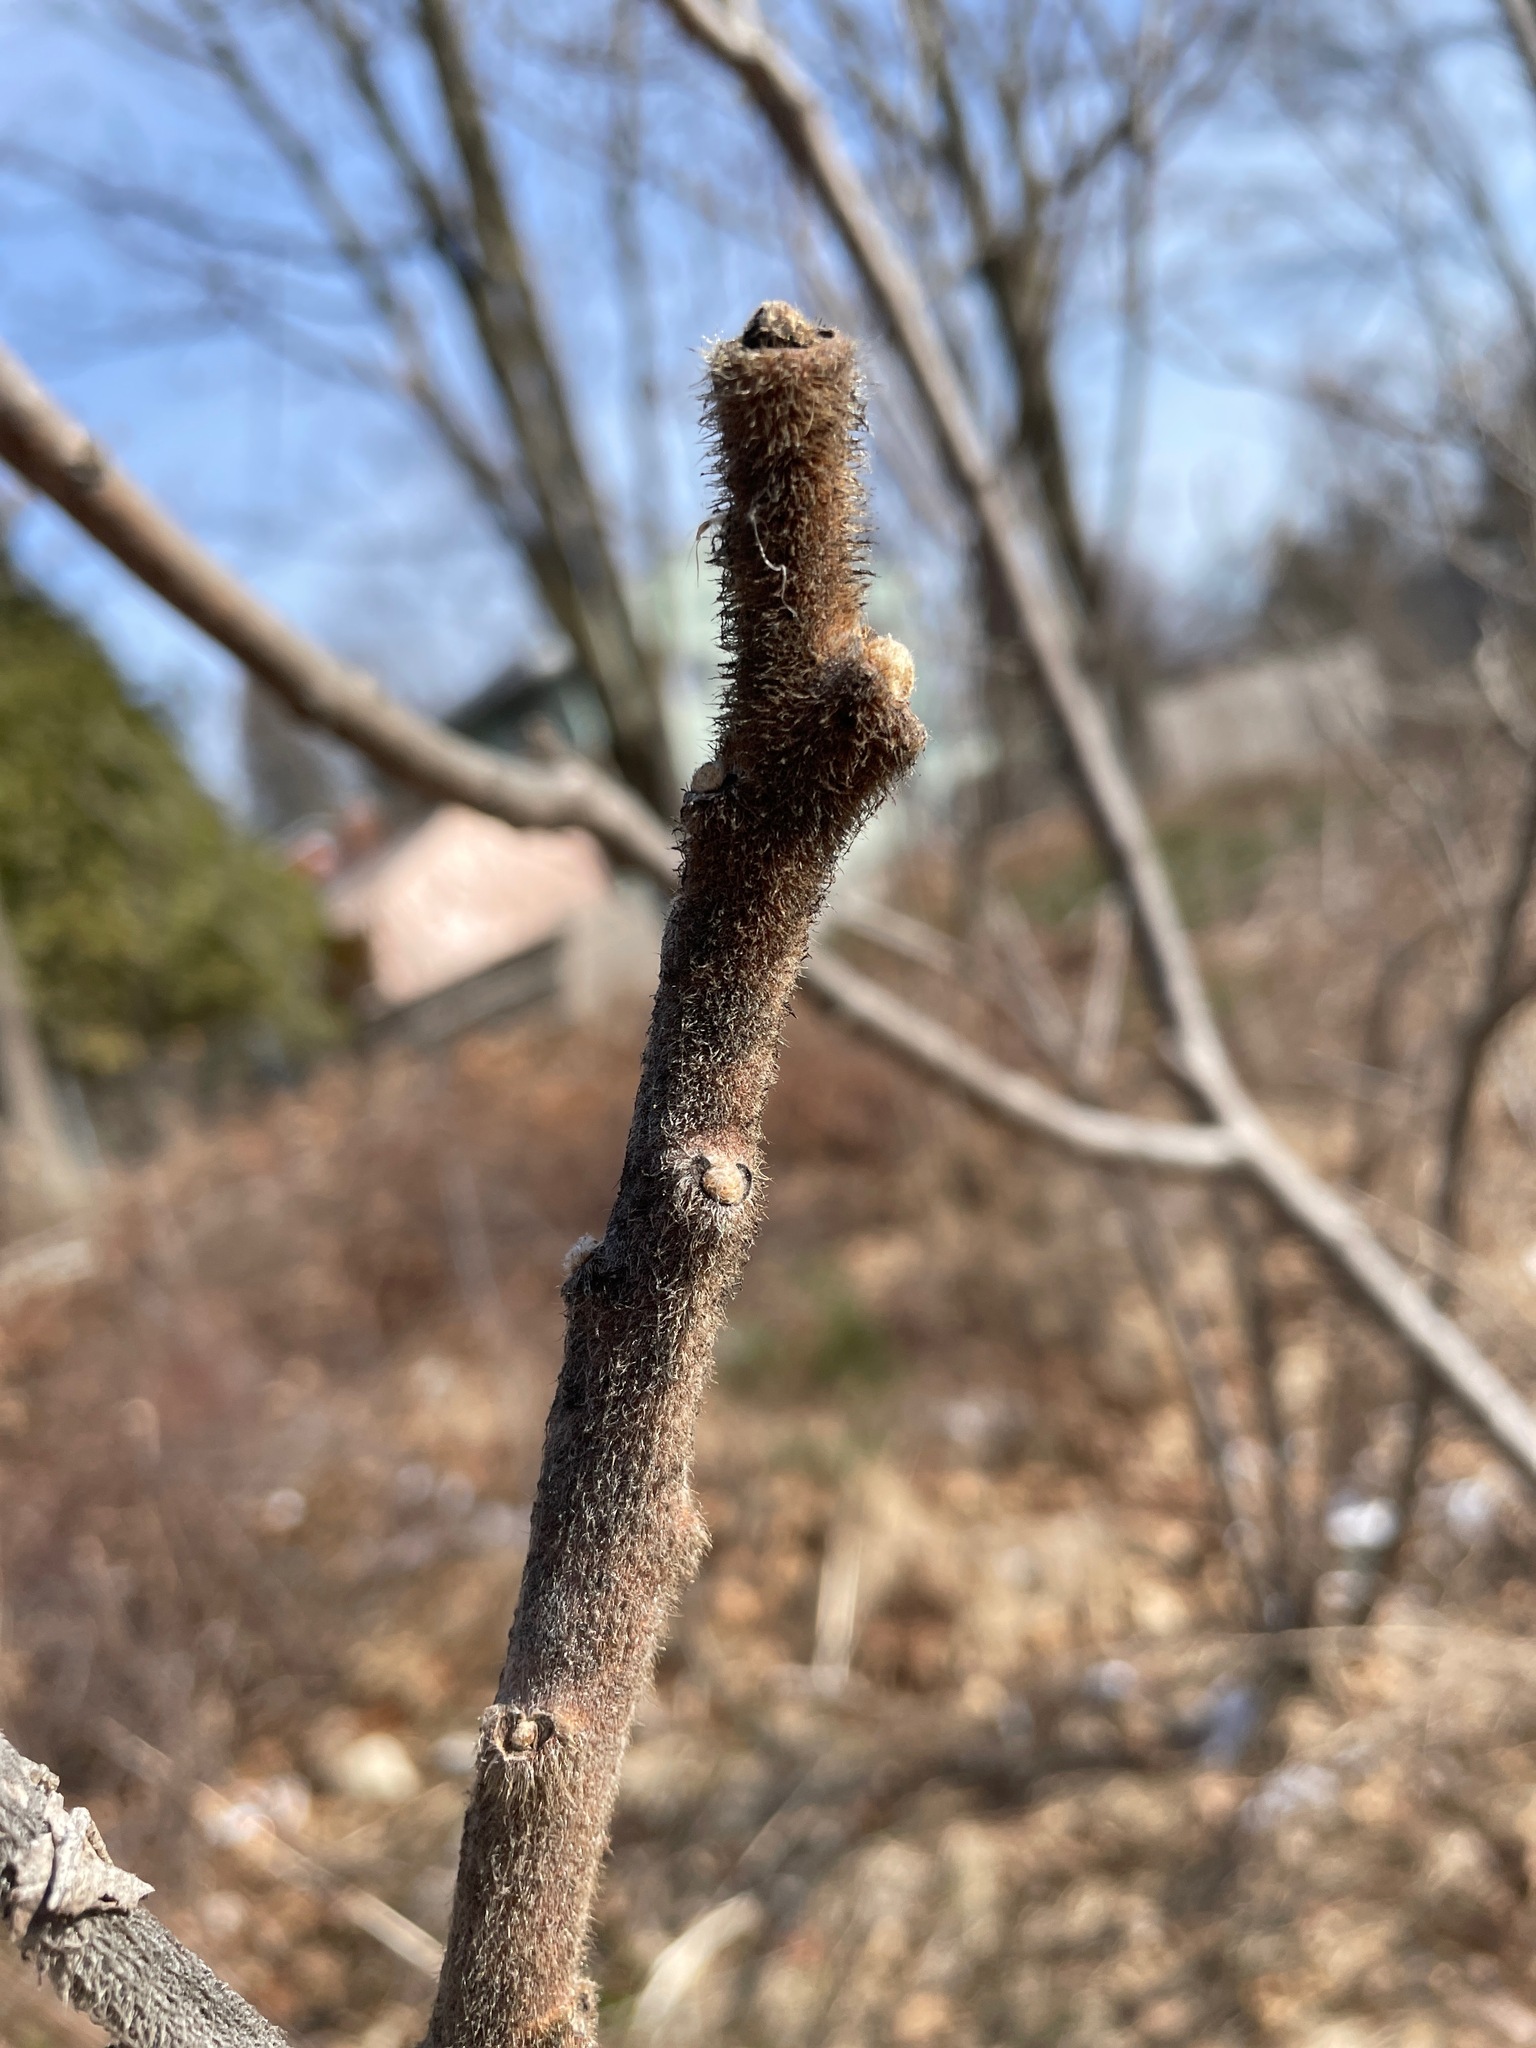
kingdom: Plantae
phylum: Tracheophyta
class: Magnoliopsida
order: Sapindales
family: Anacardiaceae
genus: Rhus
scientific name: Rhus typhina
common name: Staghorn sumac
